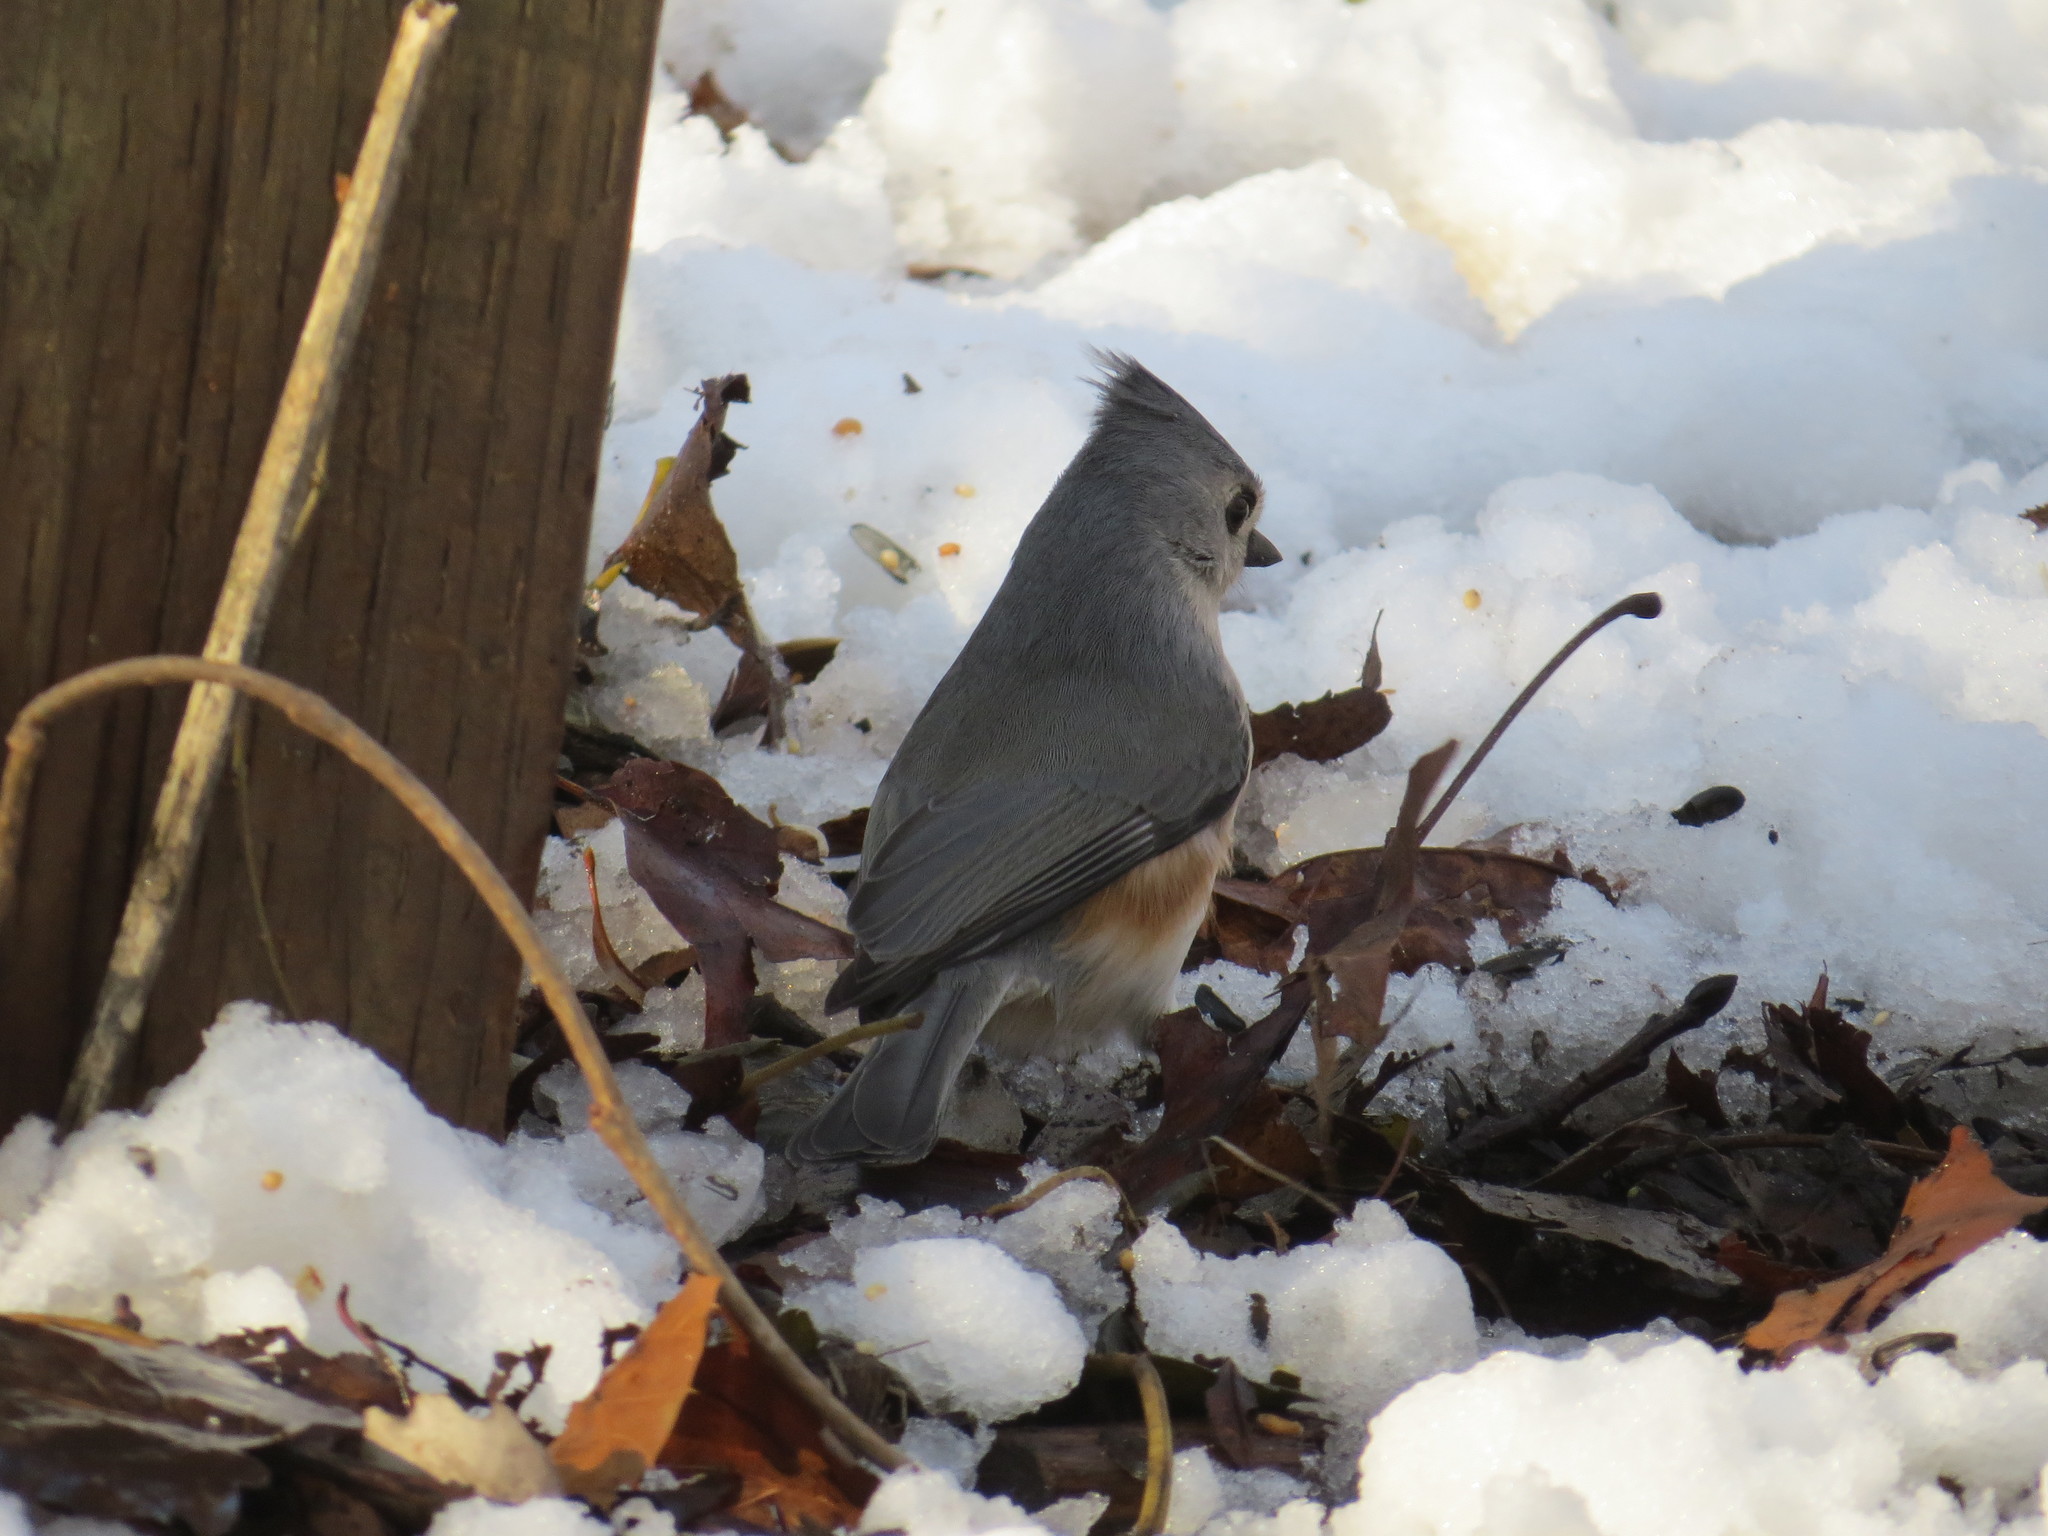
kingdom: Animalia
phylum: Chordata
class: Aves
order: Passeriformes
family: Paridae
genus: Baeolophus
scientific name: Baeolophus bicolor
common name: Tufted titmouse
